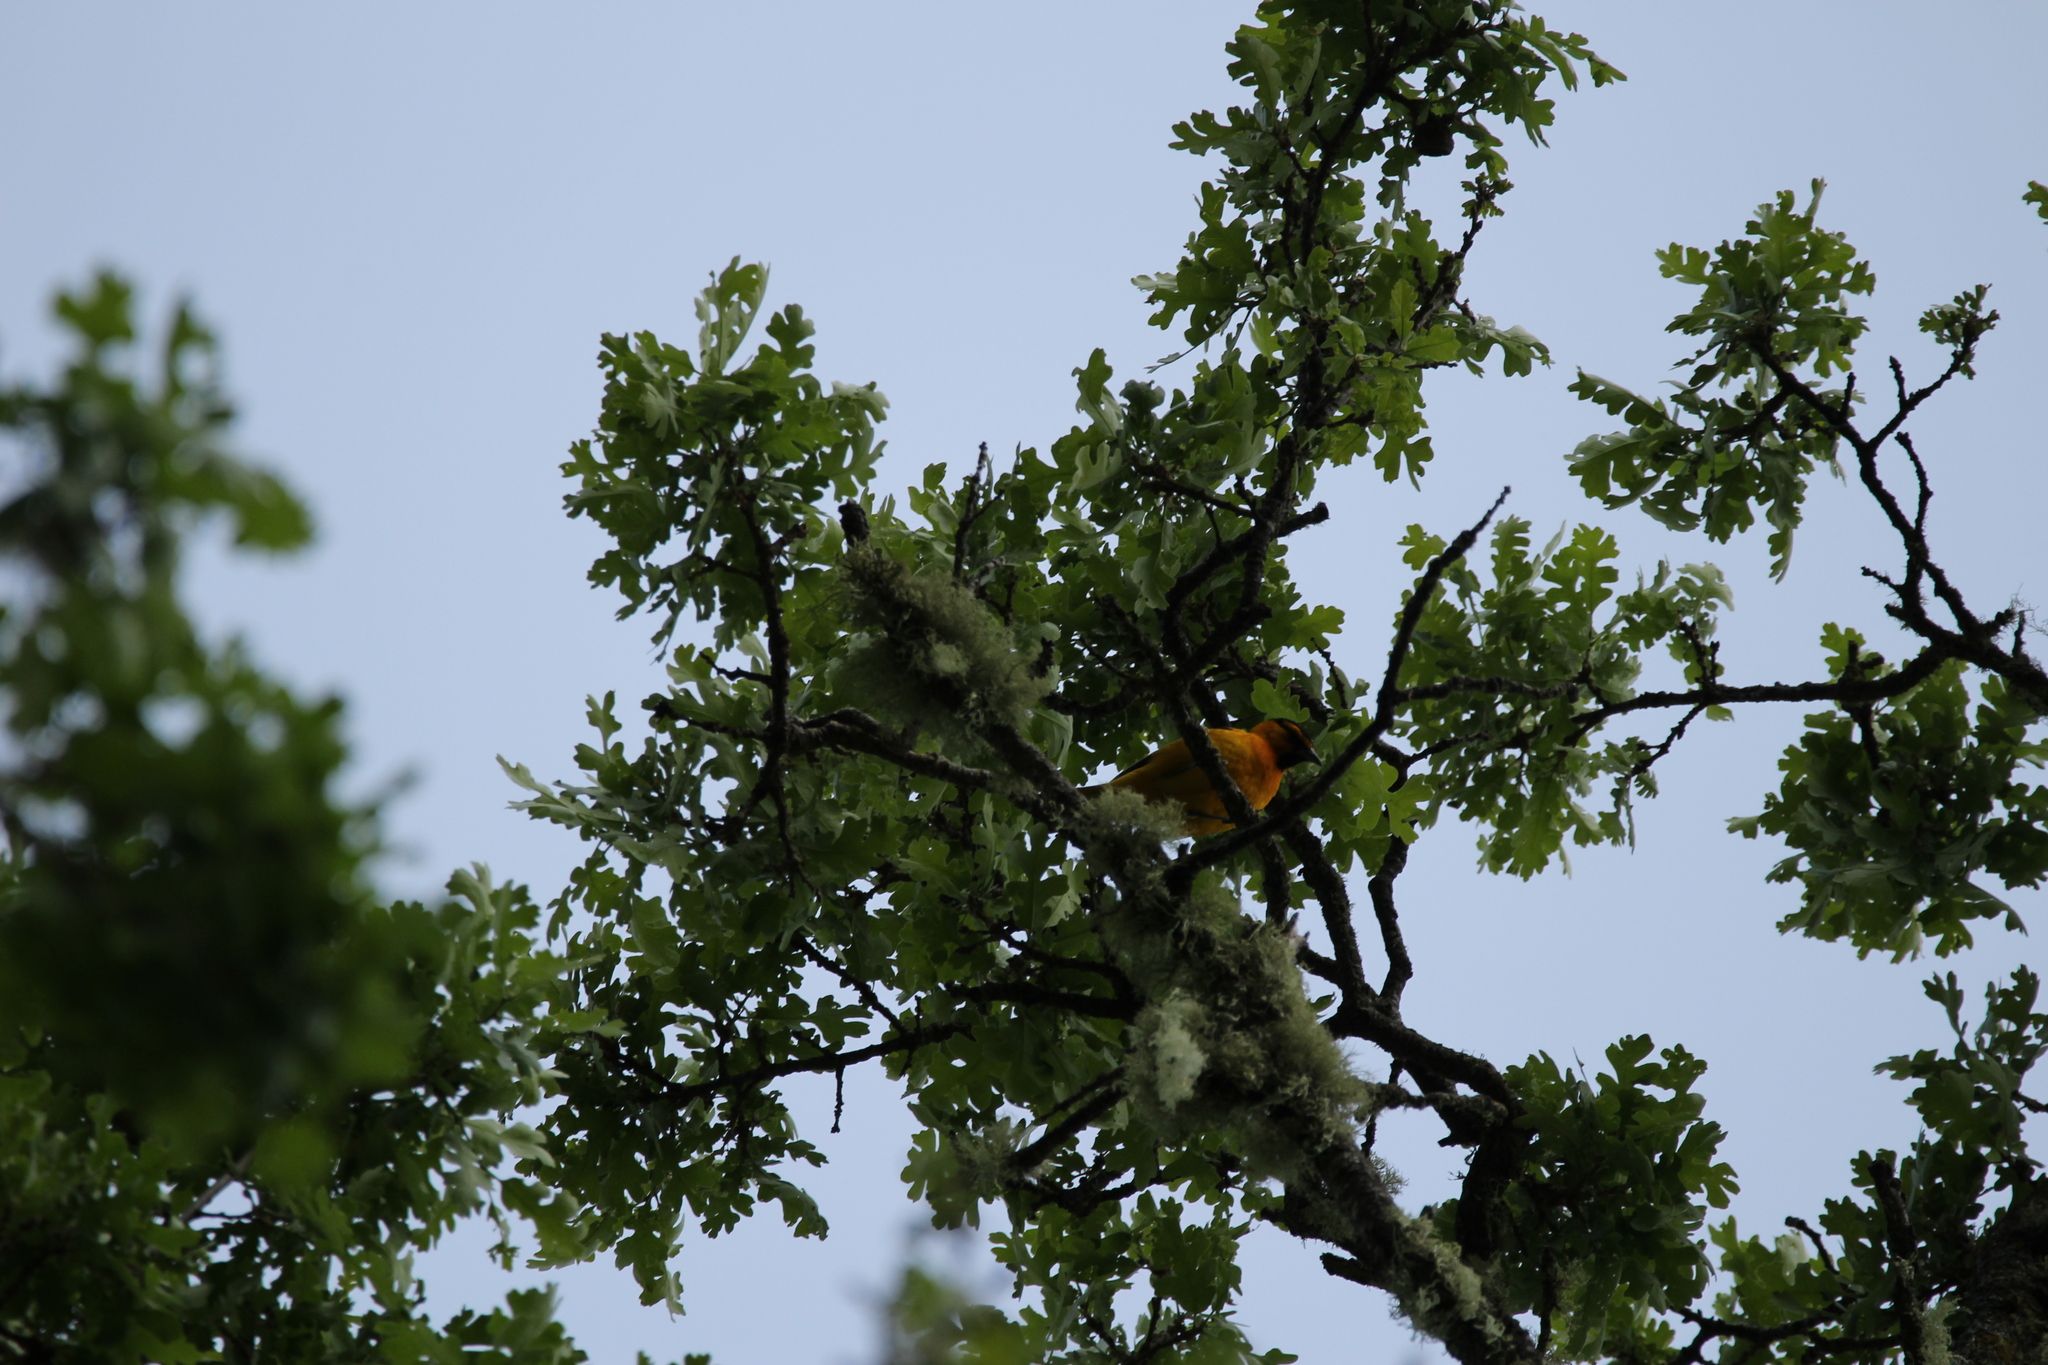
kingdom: Animalia
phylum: Chordata
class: Aves
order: Passeriformes
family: Icteridae
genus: Icterus
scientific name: Icterus bullockii
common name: Bullock's oriole
